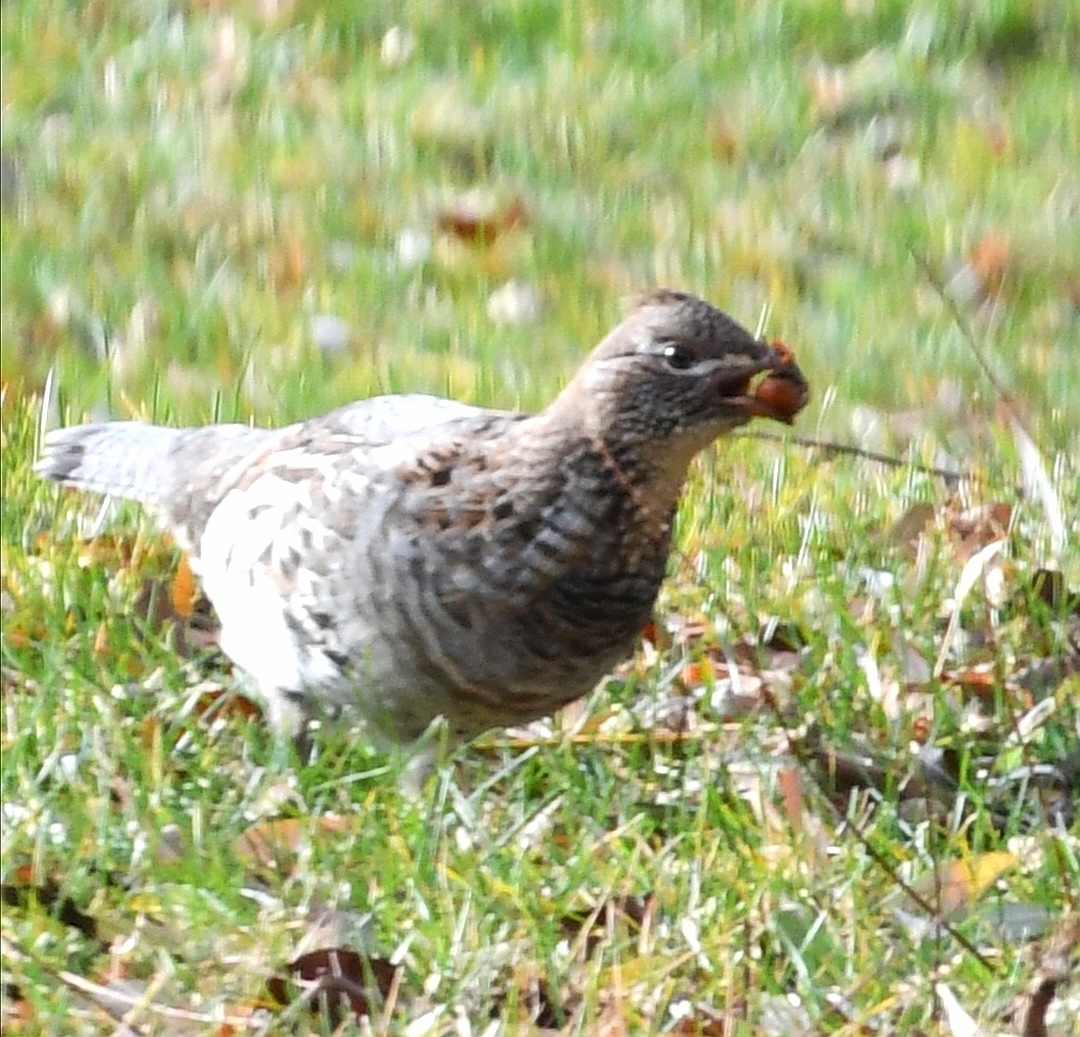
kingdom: Animalia
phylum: Chordata
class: Aves
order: Galliformes
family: Phasianidae
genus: Bonasa
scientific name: Bonasa umbellus
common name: Ruffed grouse
